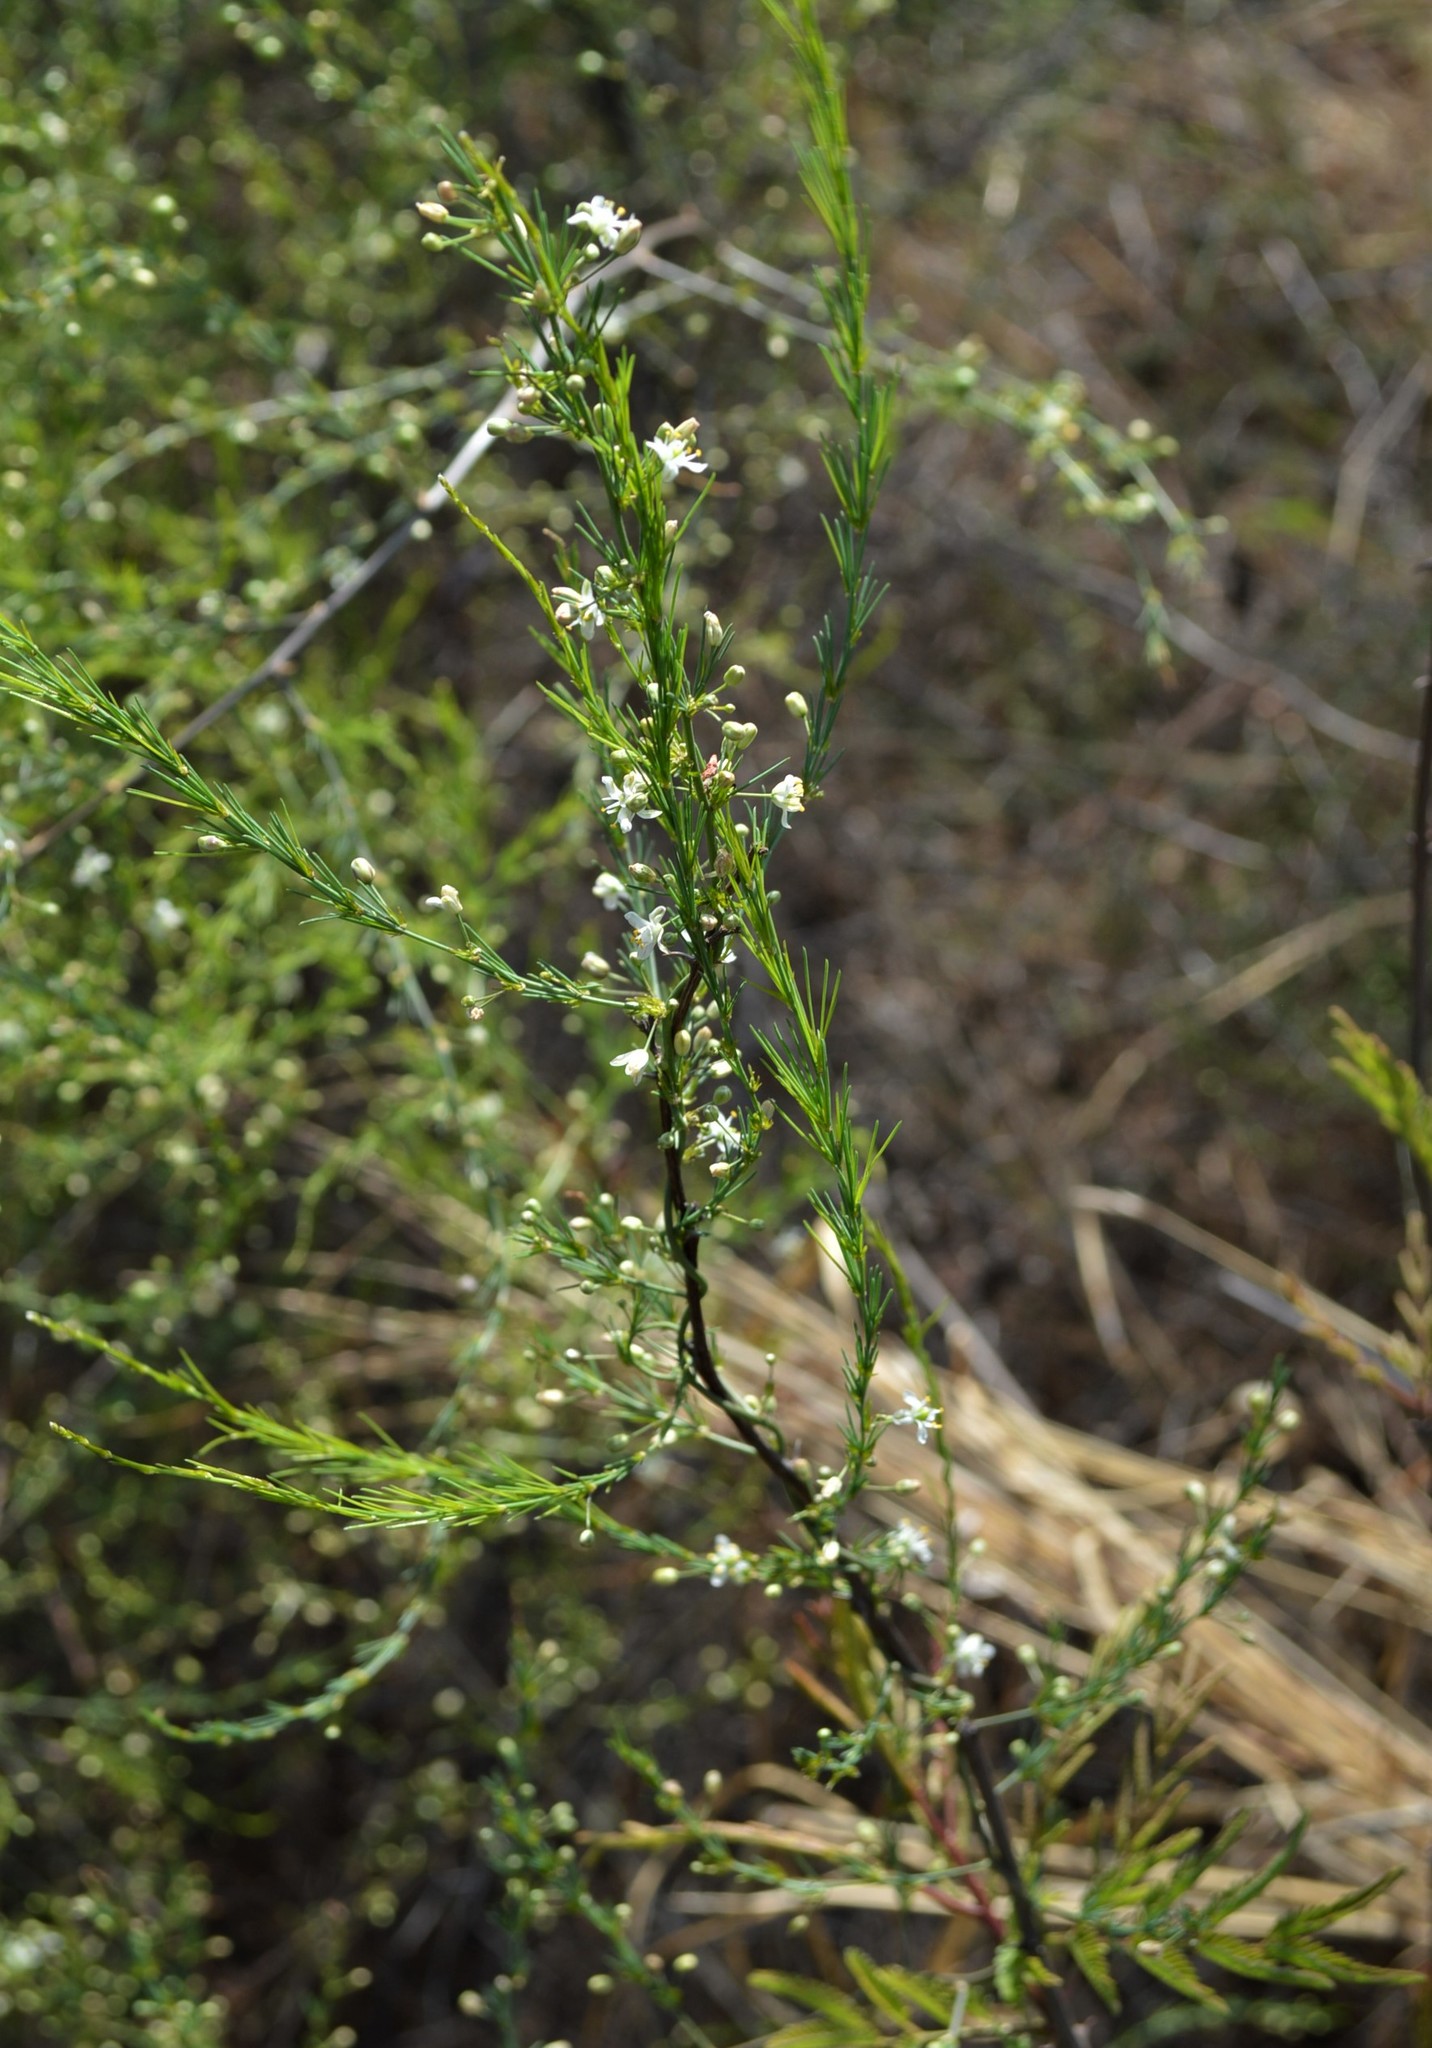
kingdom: Plantae
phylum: Tracheophyta
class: Liliopsida
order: Asparagales
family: Asparagaceae
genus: Asparagus
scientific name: Asparagus africanus
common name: Asparagus-fern
